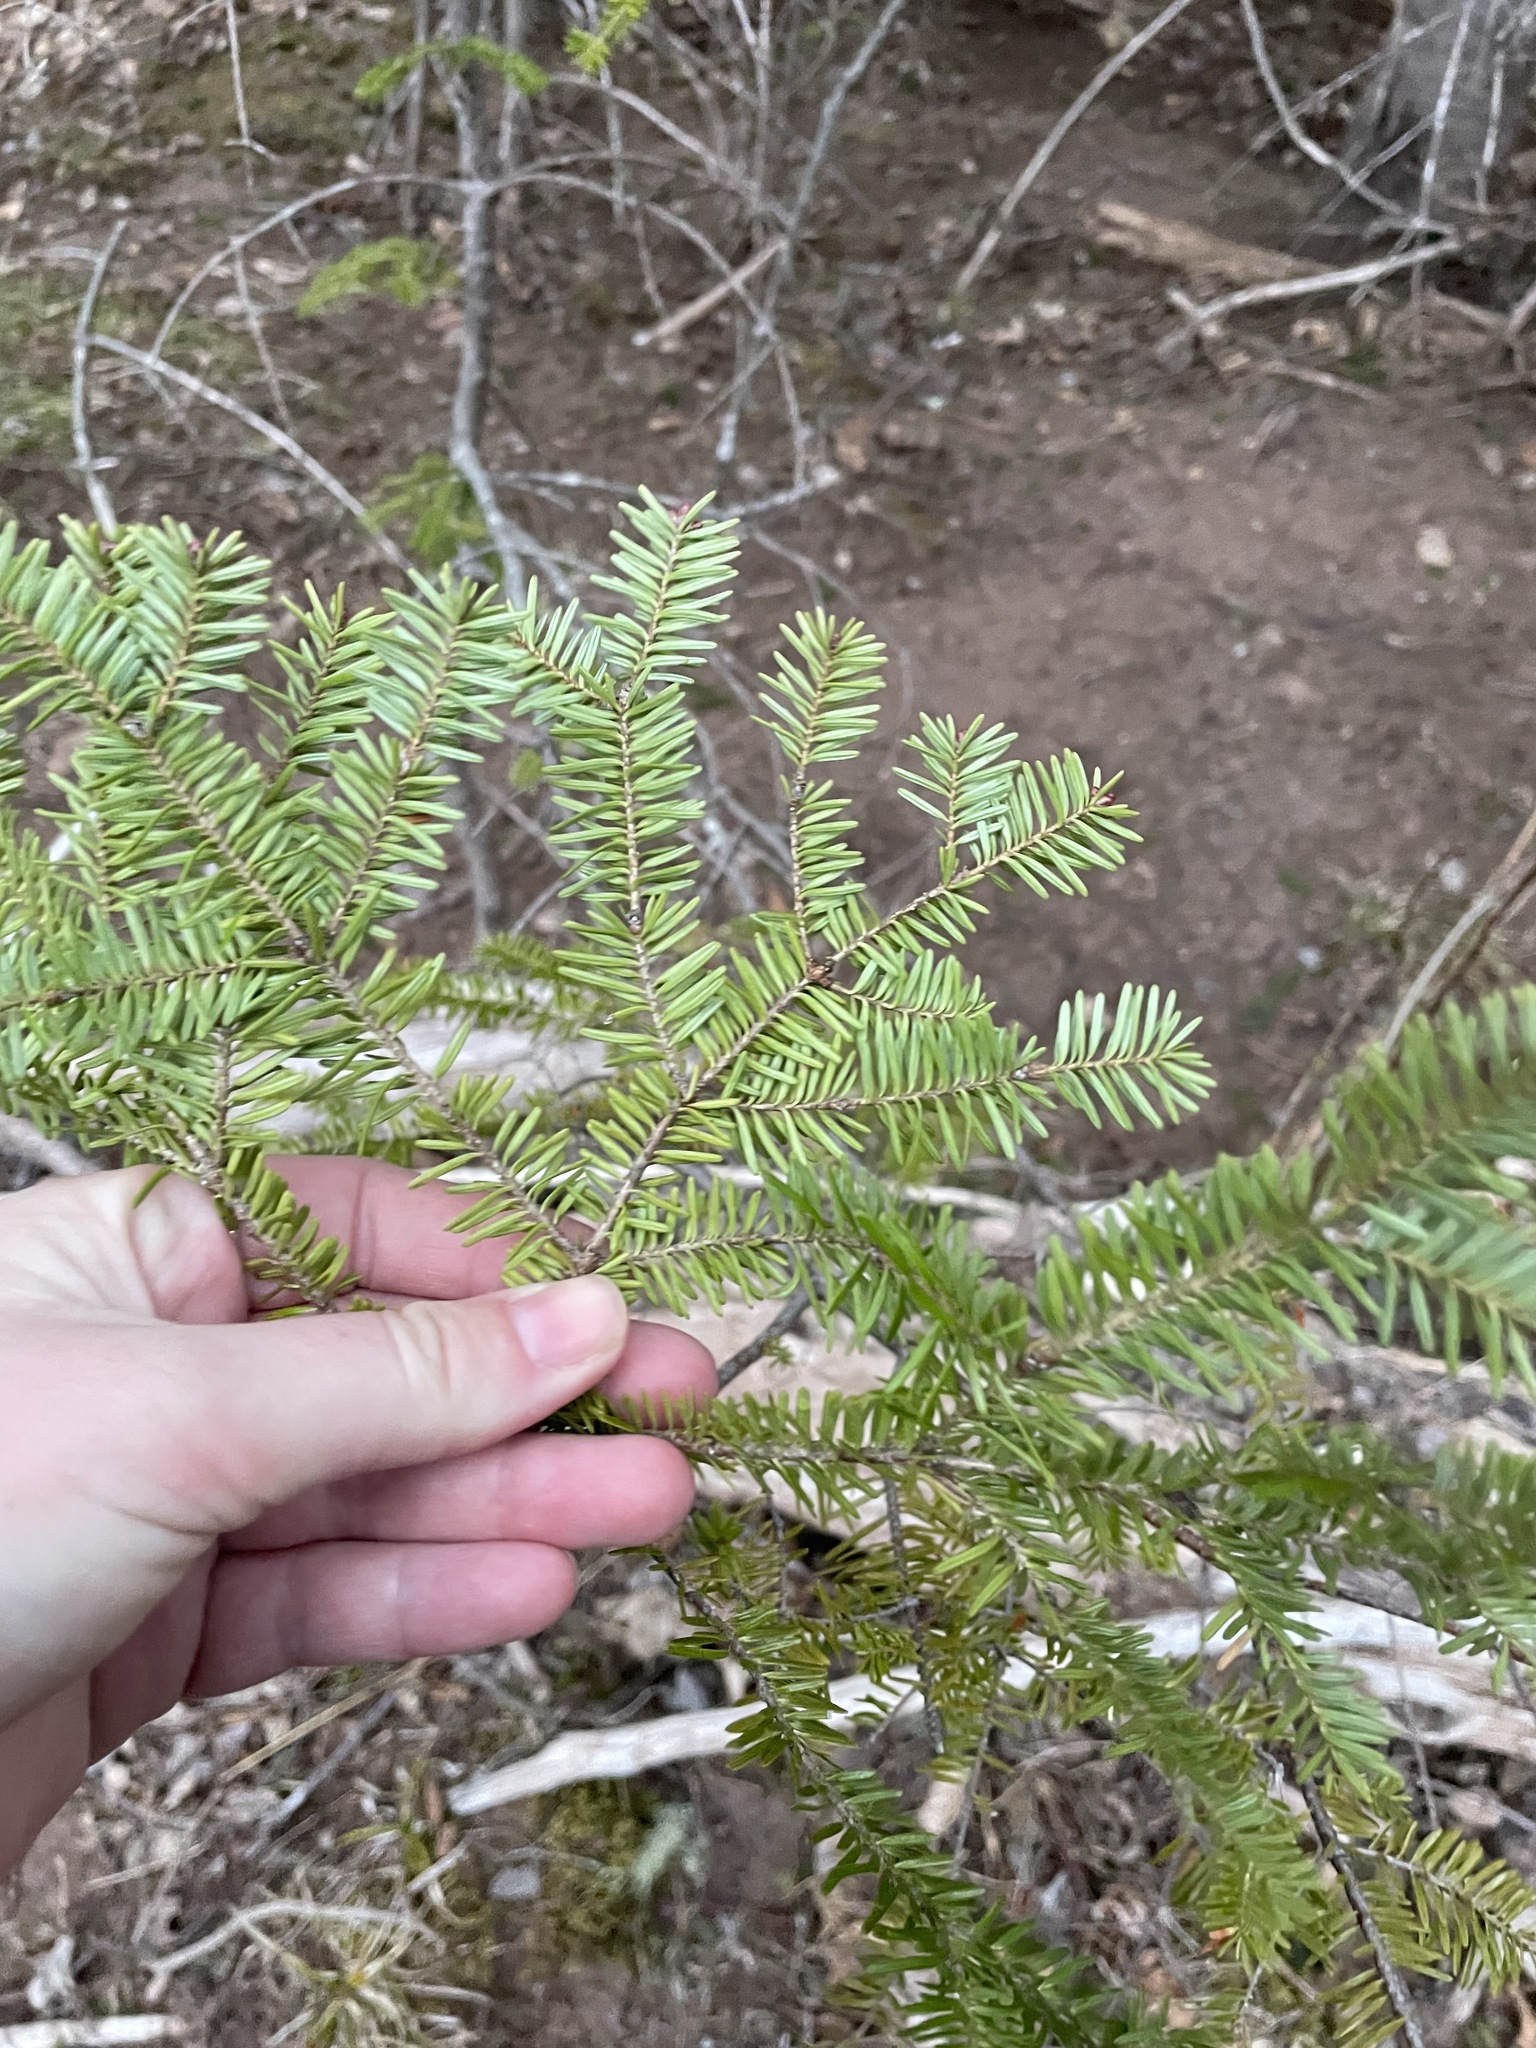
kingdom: Plantae
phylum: Tracheophyta
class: Pinopsida
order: Pinales
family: Pinaceae
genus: Abies
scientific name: Abies balsamea
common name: Balsam fir
